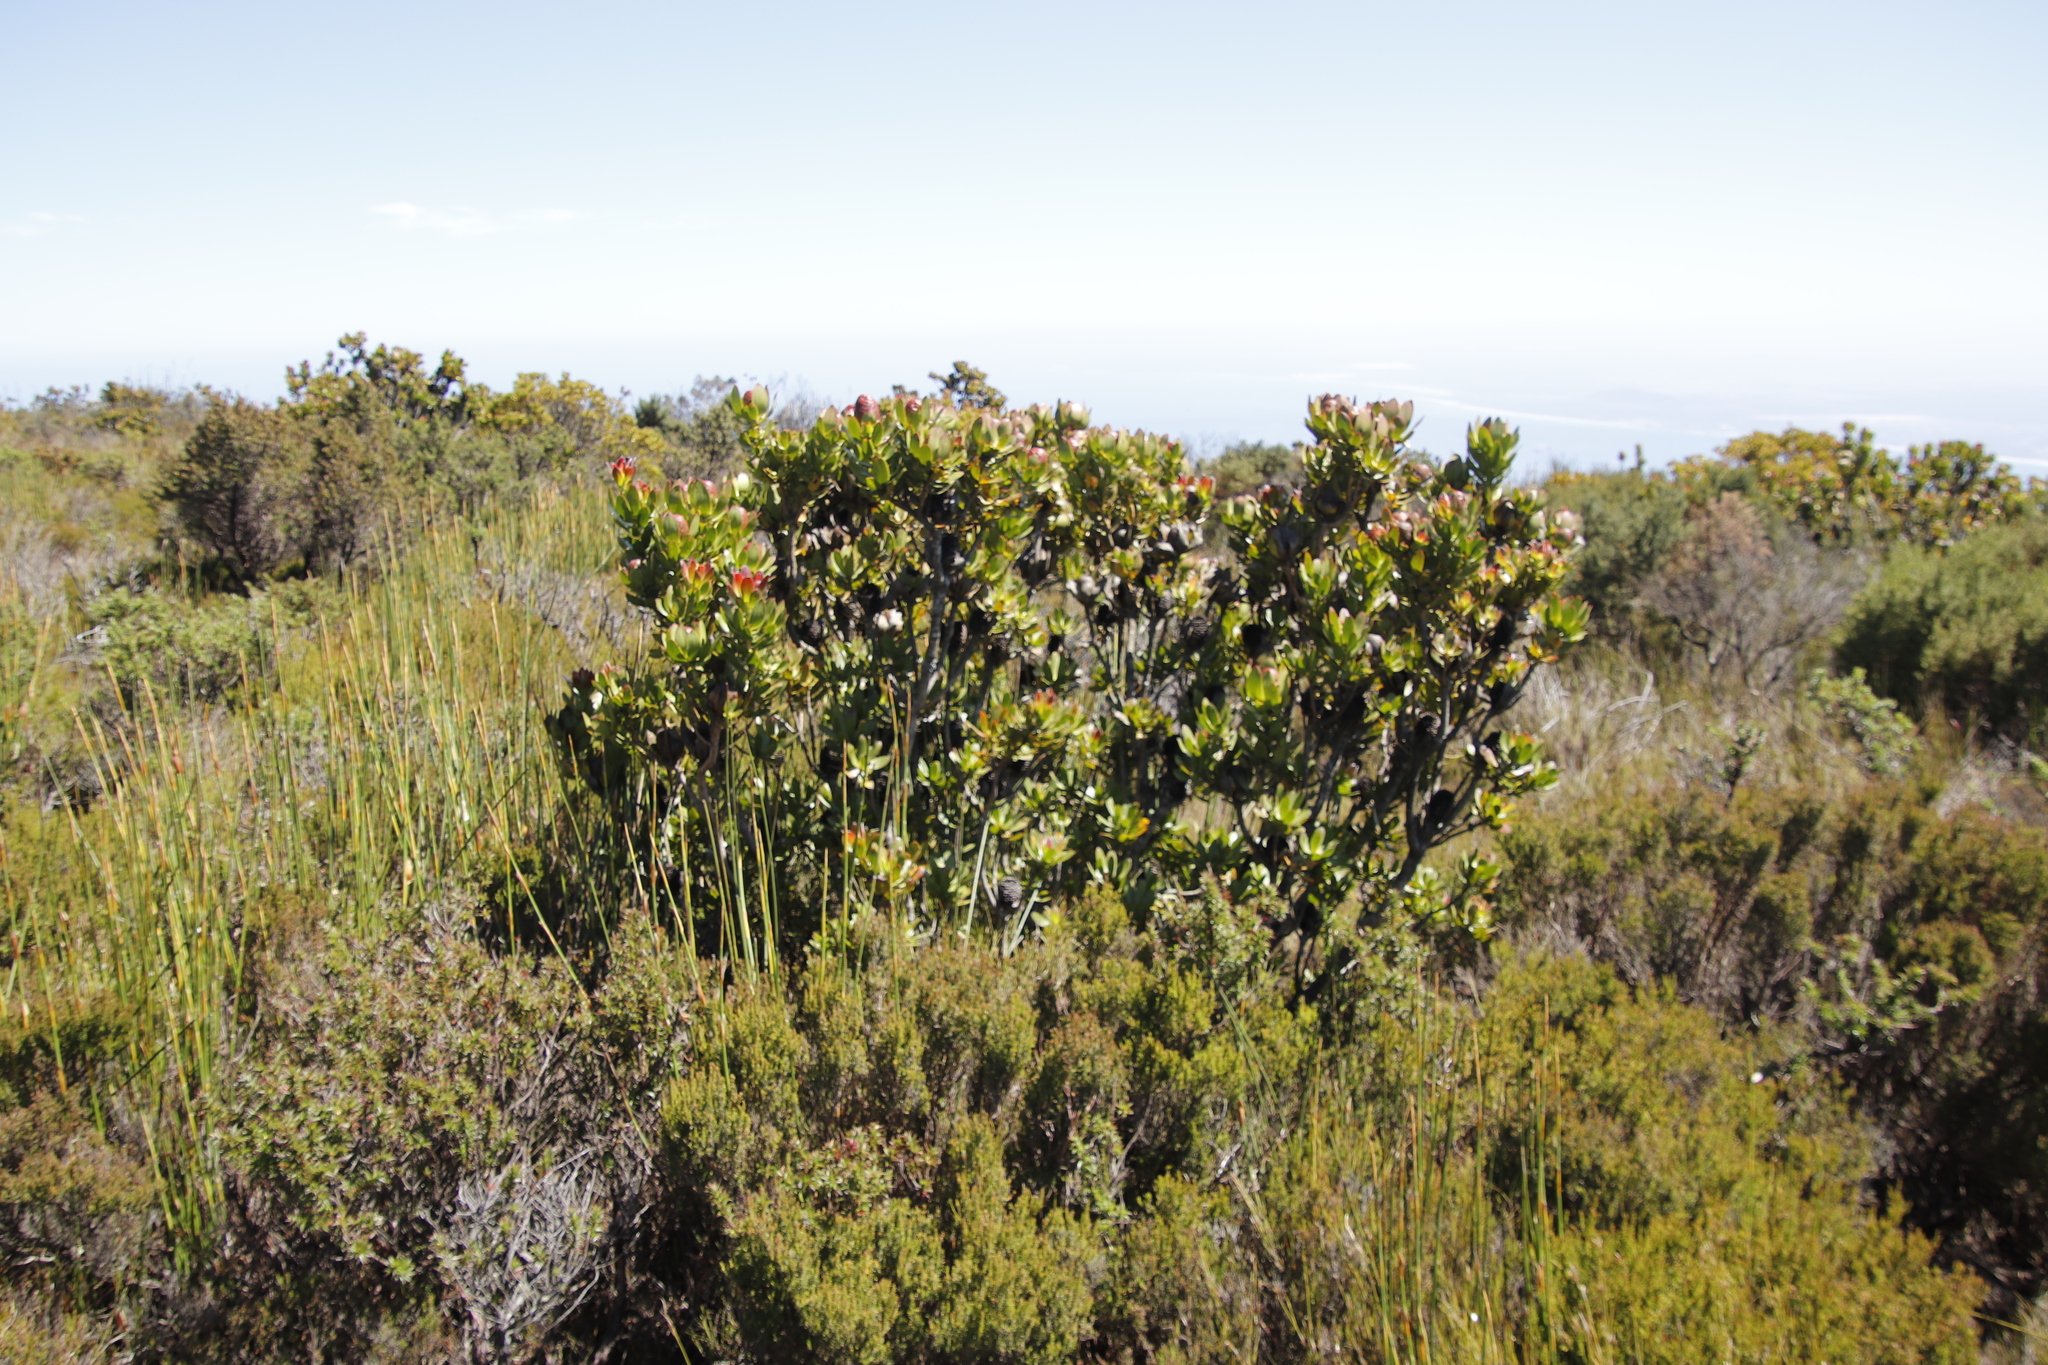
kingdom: Plantae
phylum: Tracheophyta
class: Magnoliopsida
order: Proteales
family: Proteaceae
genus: Leucadendron
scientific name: Leucadendron strobilinum
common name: Mountain rose
